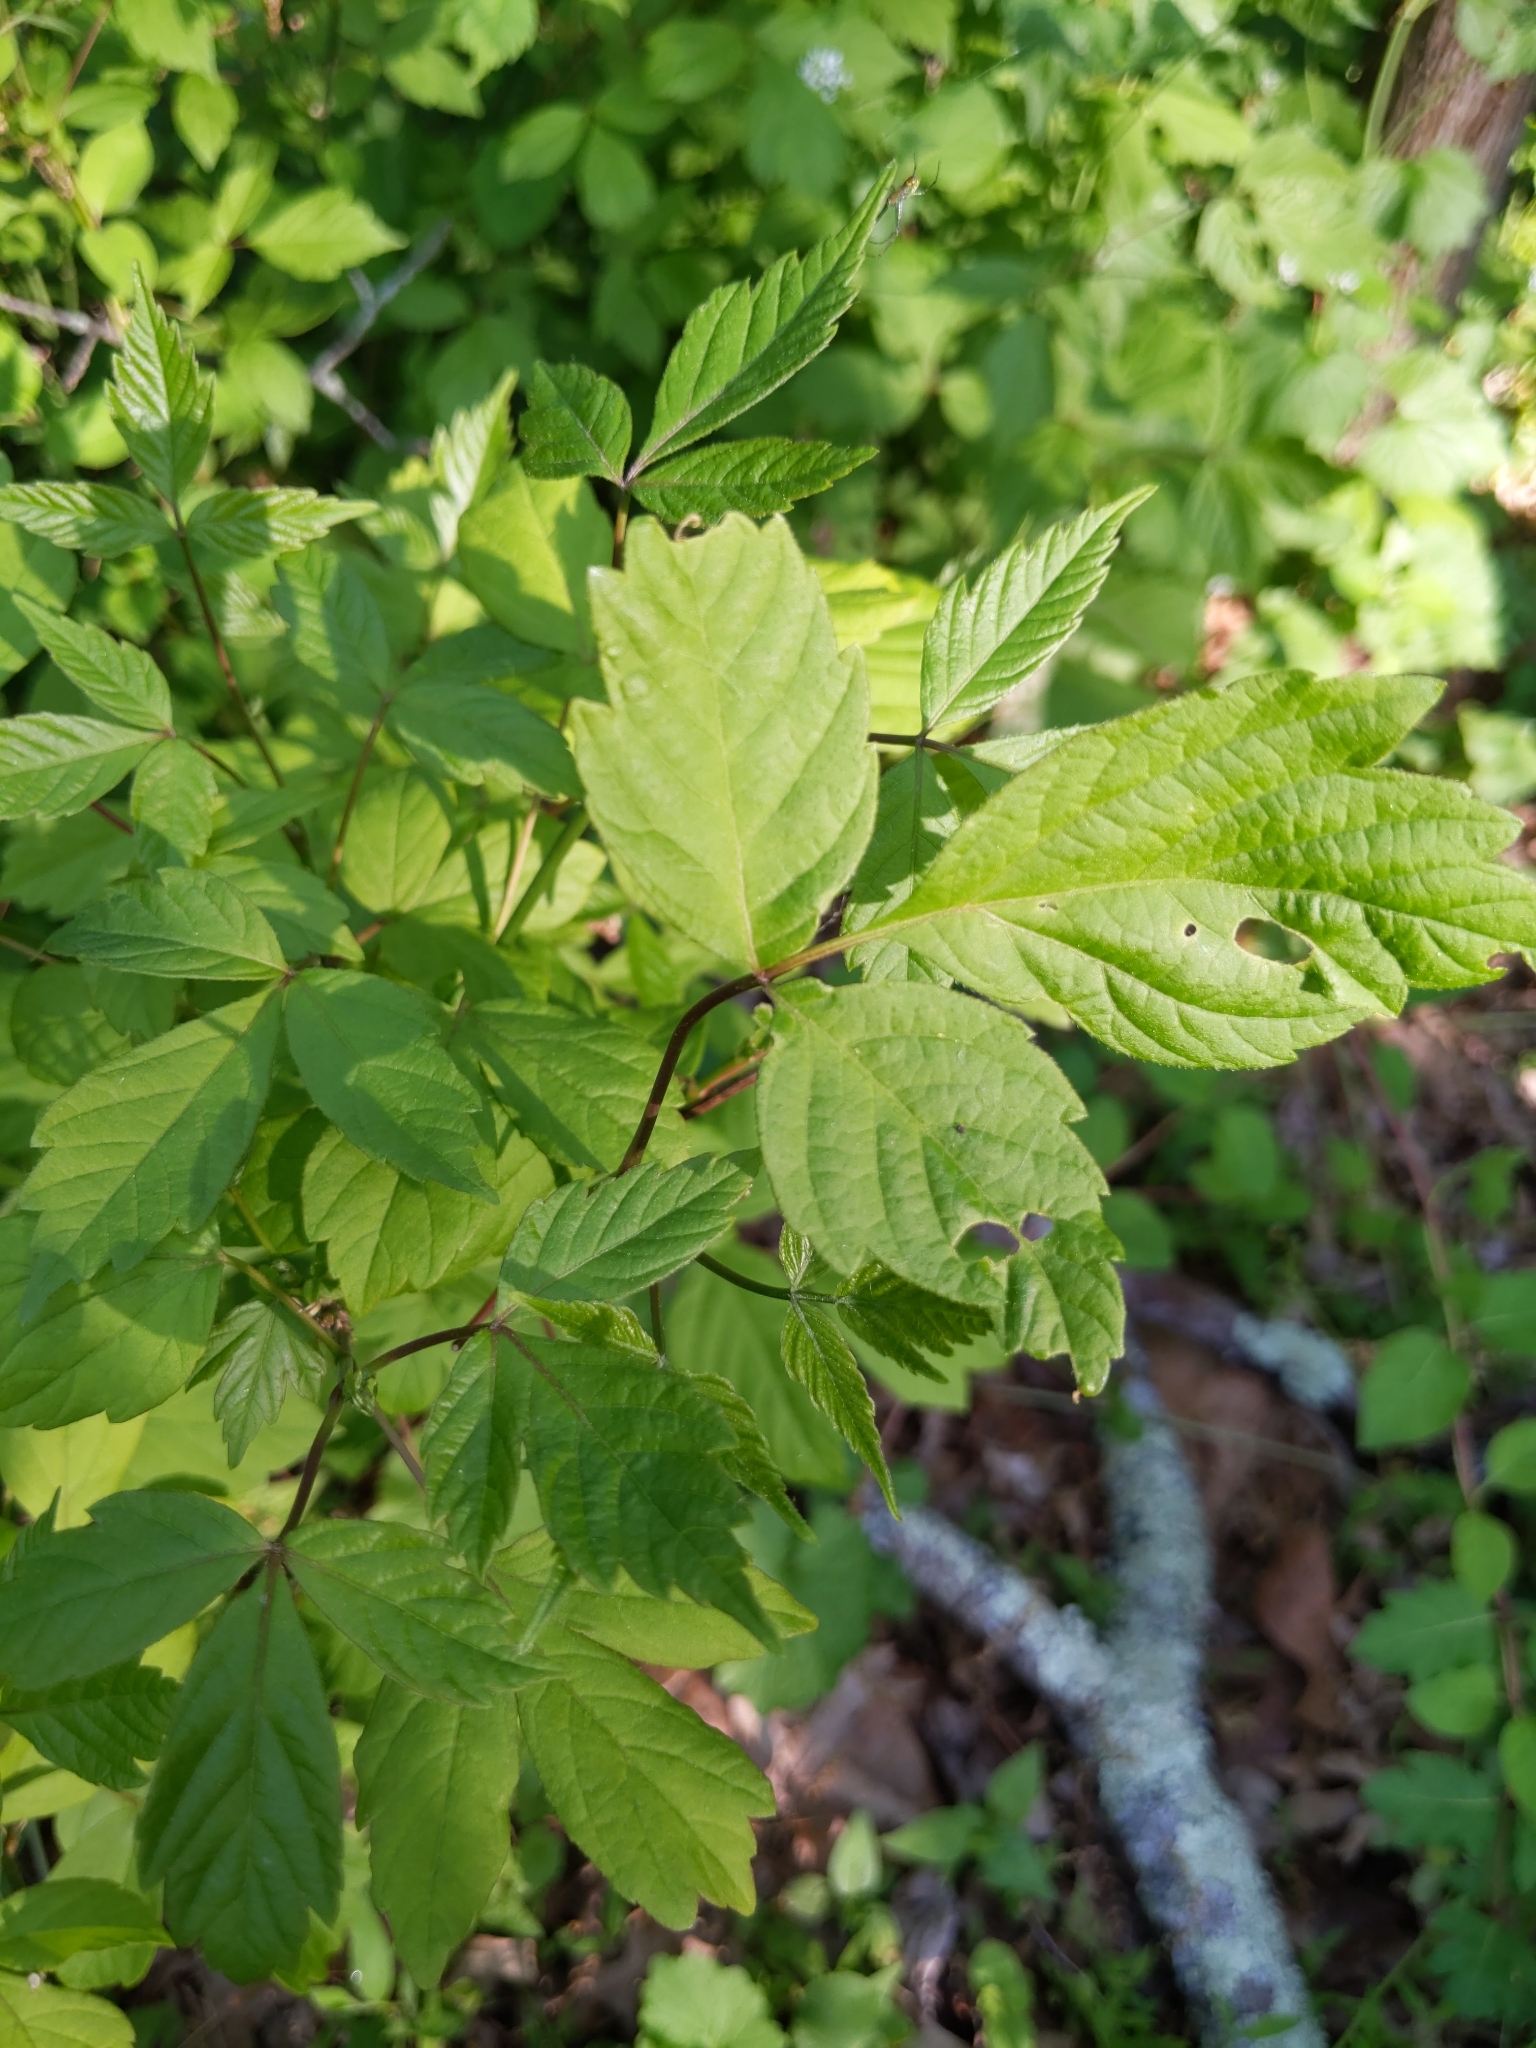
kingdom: Plantae
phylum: Tracheophyta
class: Magnoliopsida
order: Sapindales
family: Sapindaceae
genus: Acer
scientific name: Acer negundo
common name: Ashleaf maple
